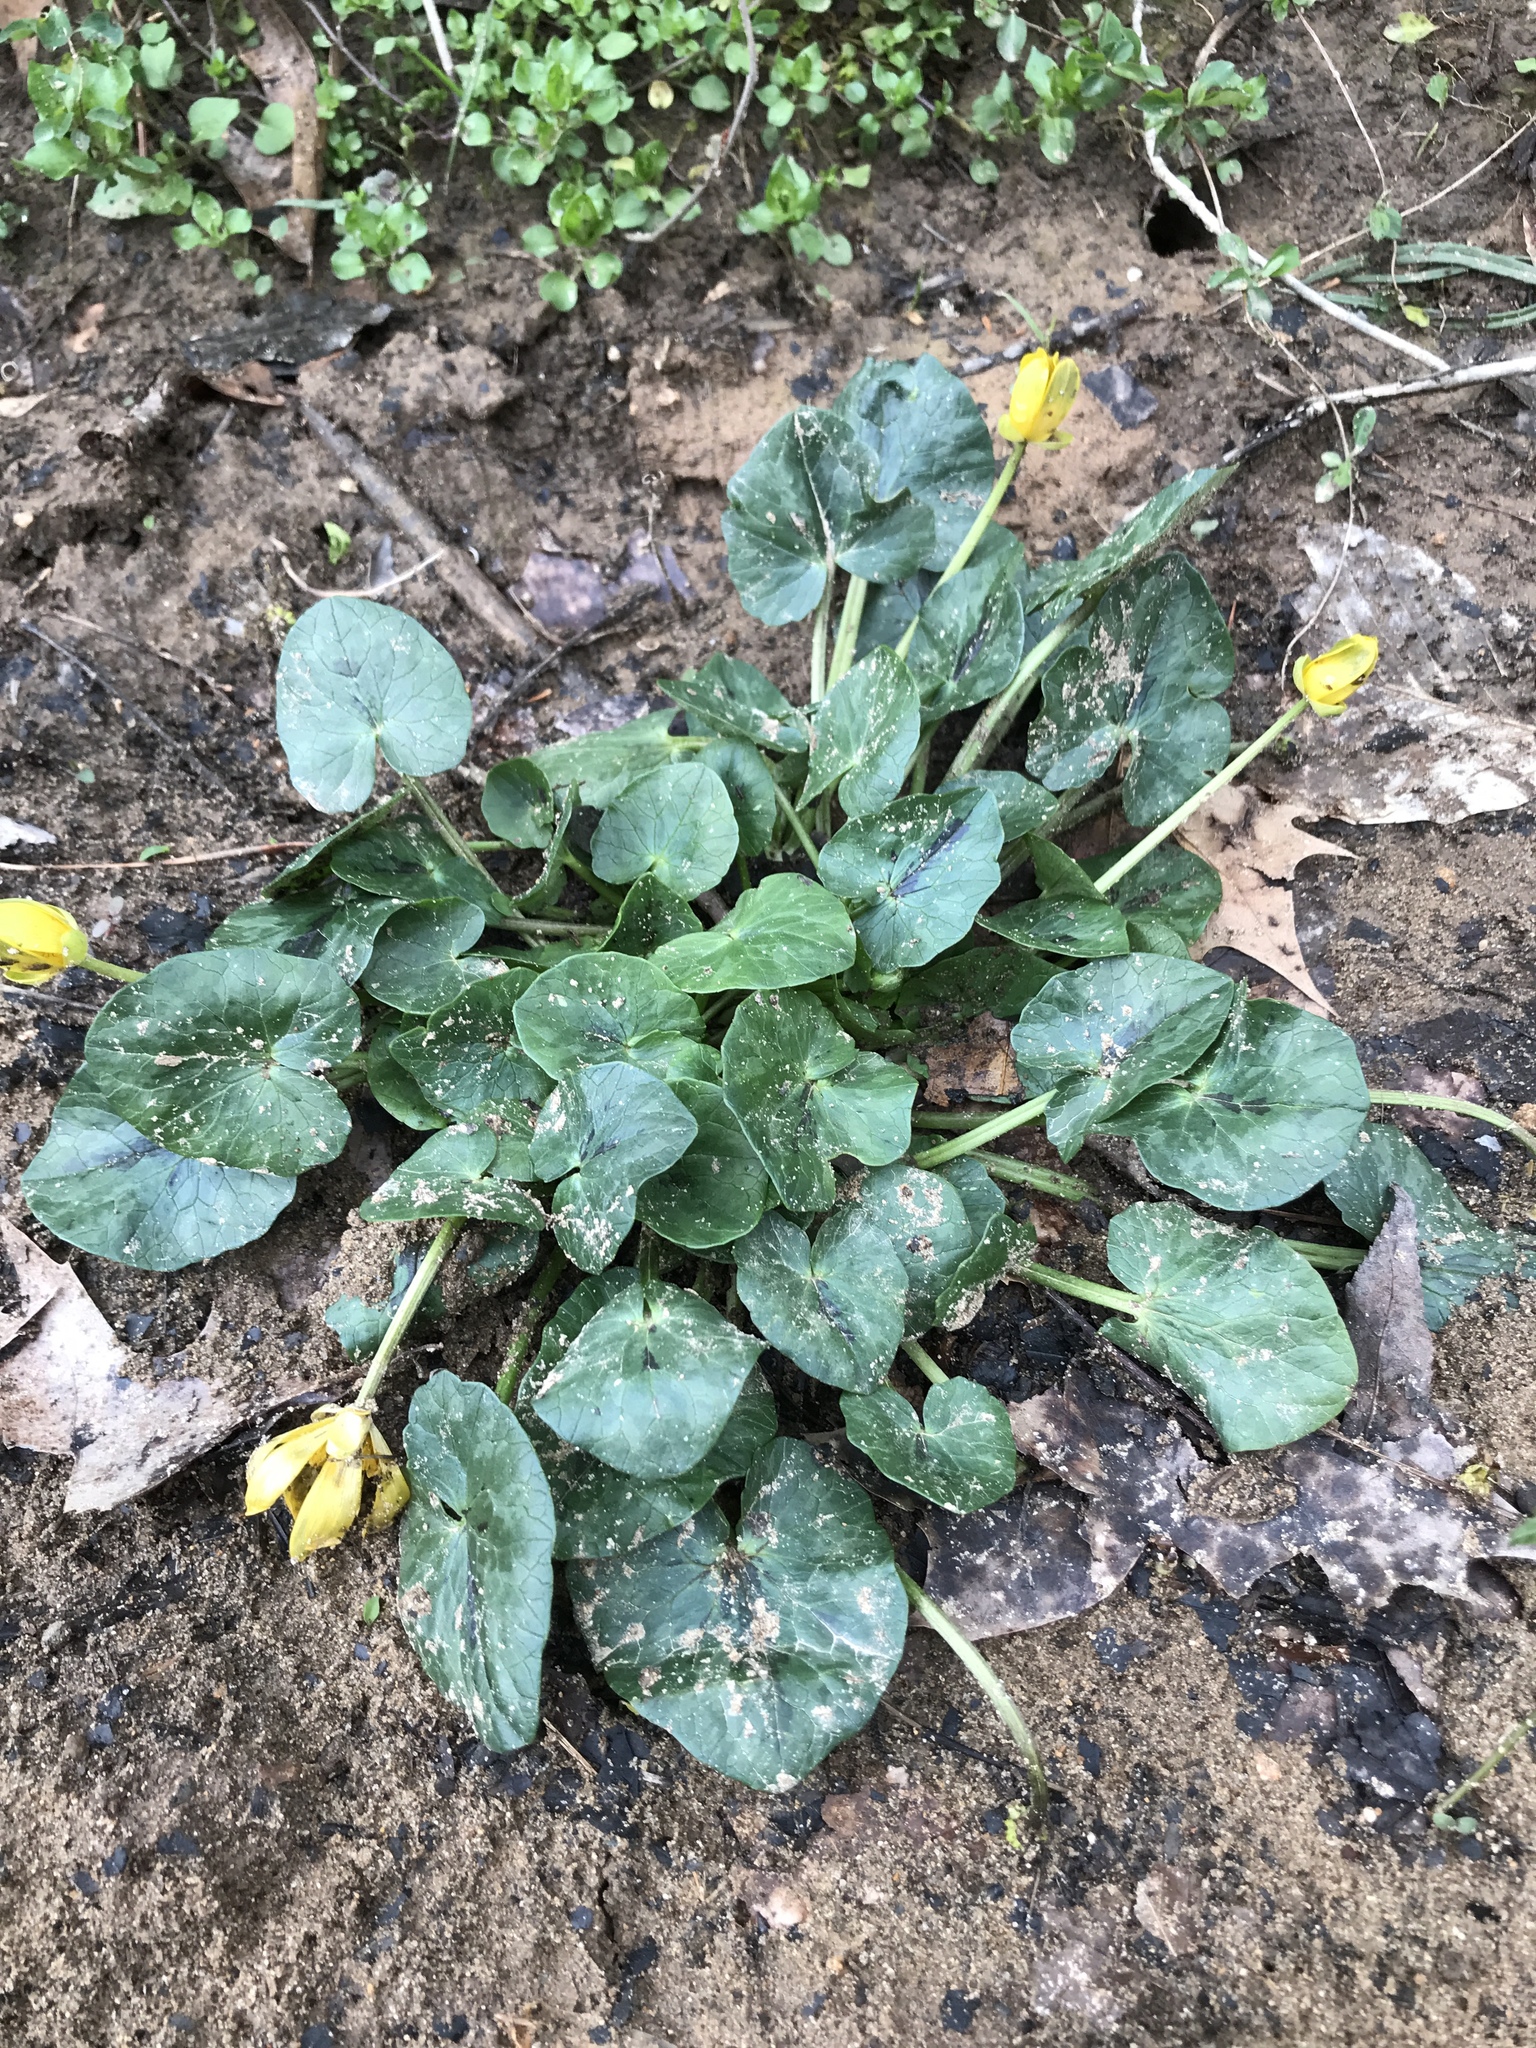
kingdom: Plantae
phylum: Tracheophyta
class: Magnoliopsida
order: Ranunculales
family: Ranunculaceae
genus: Ficaria
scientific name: Ficaria verna
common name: Lesser celandine
